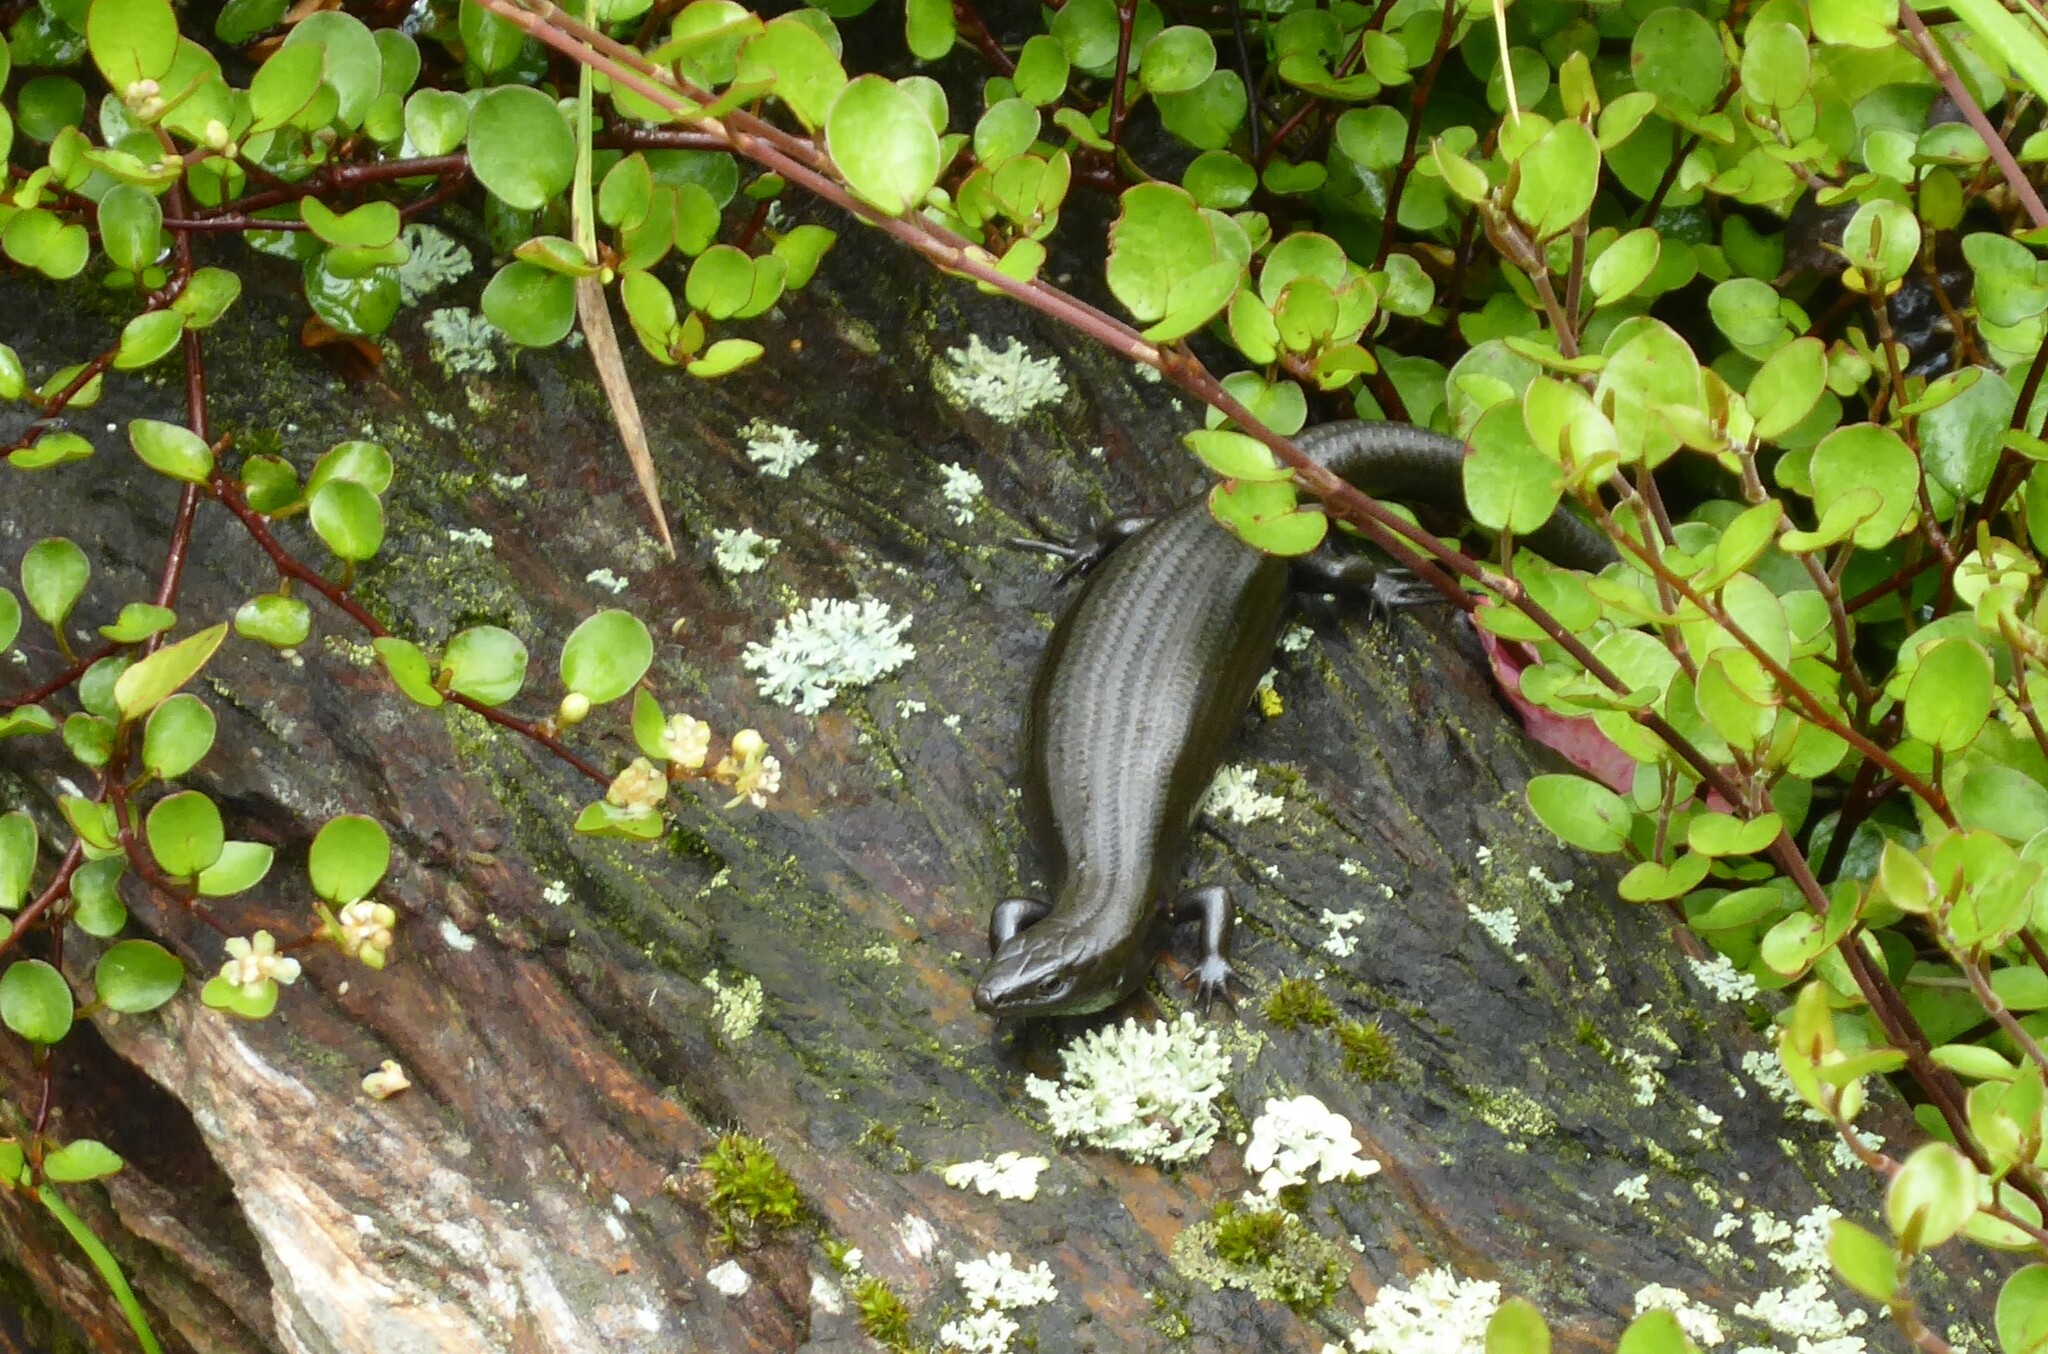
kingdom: Animalia
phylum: Chordata
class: Squamata
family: Scincidae
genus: Oligosoma
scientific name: Oligosoma polychroma
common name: Common new zealand skink
